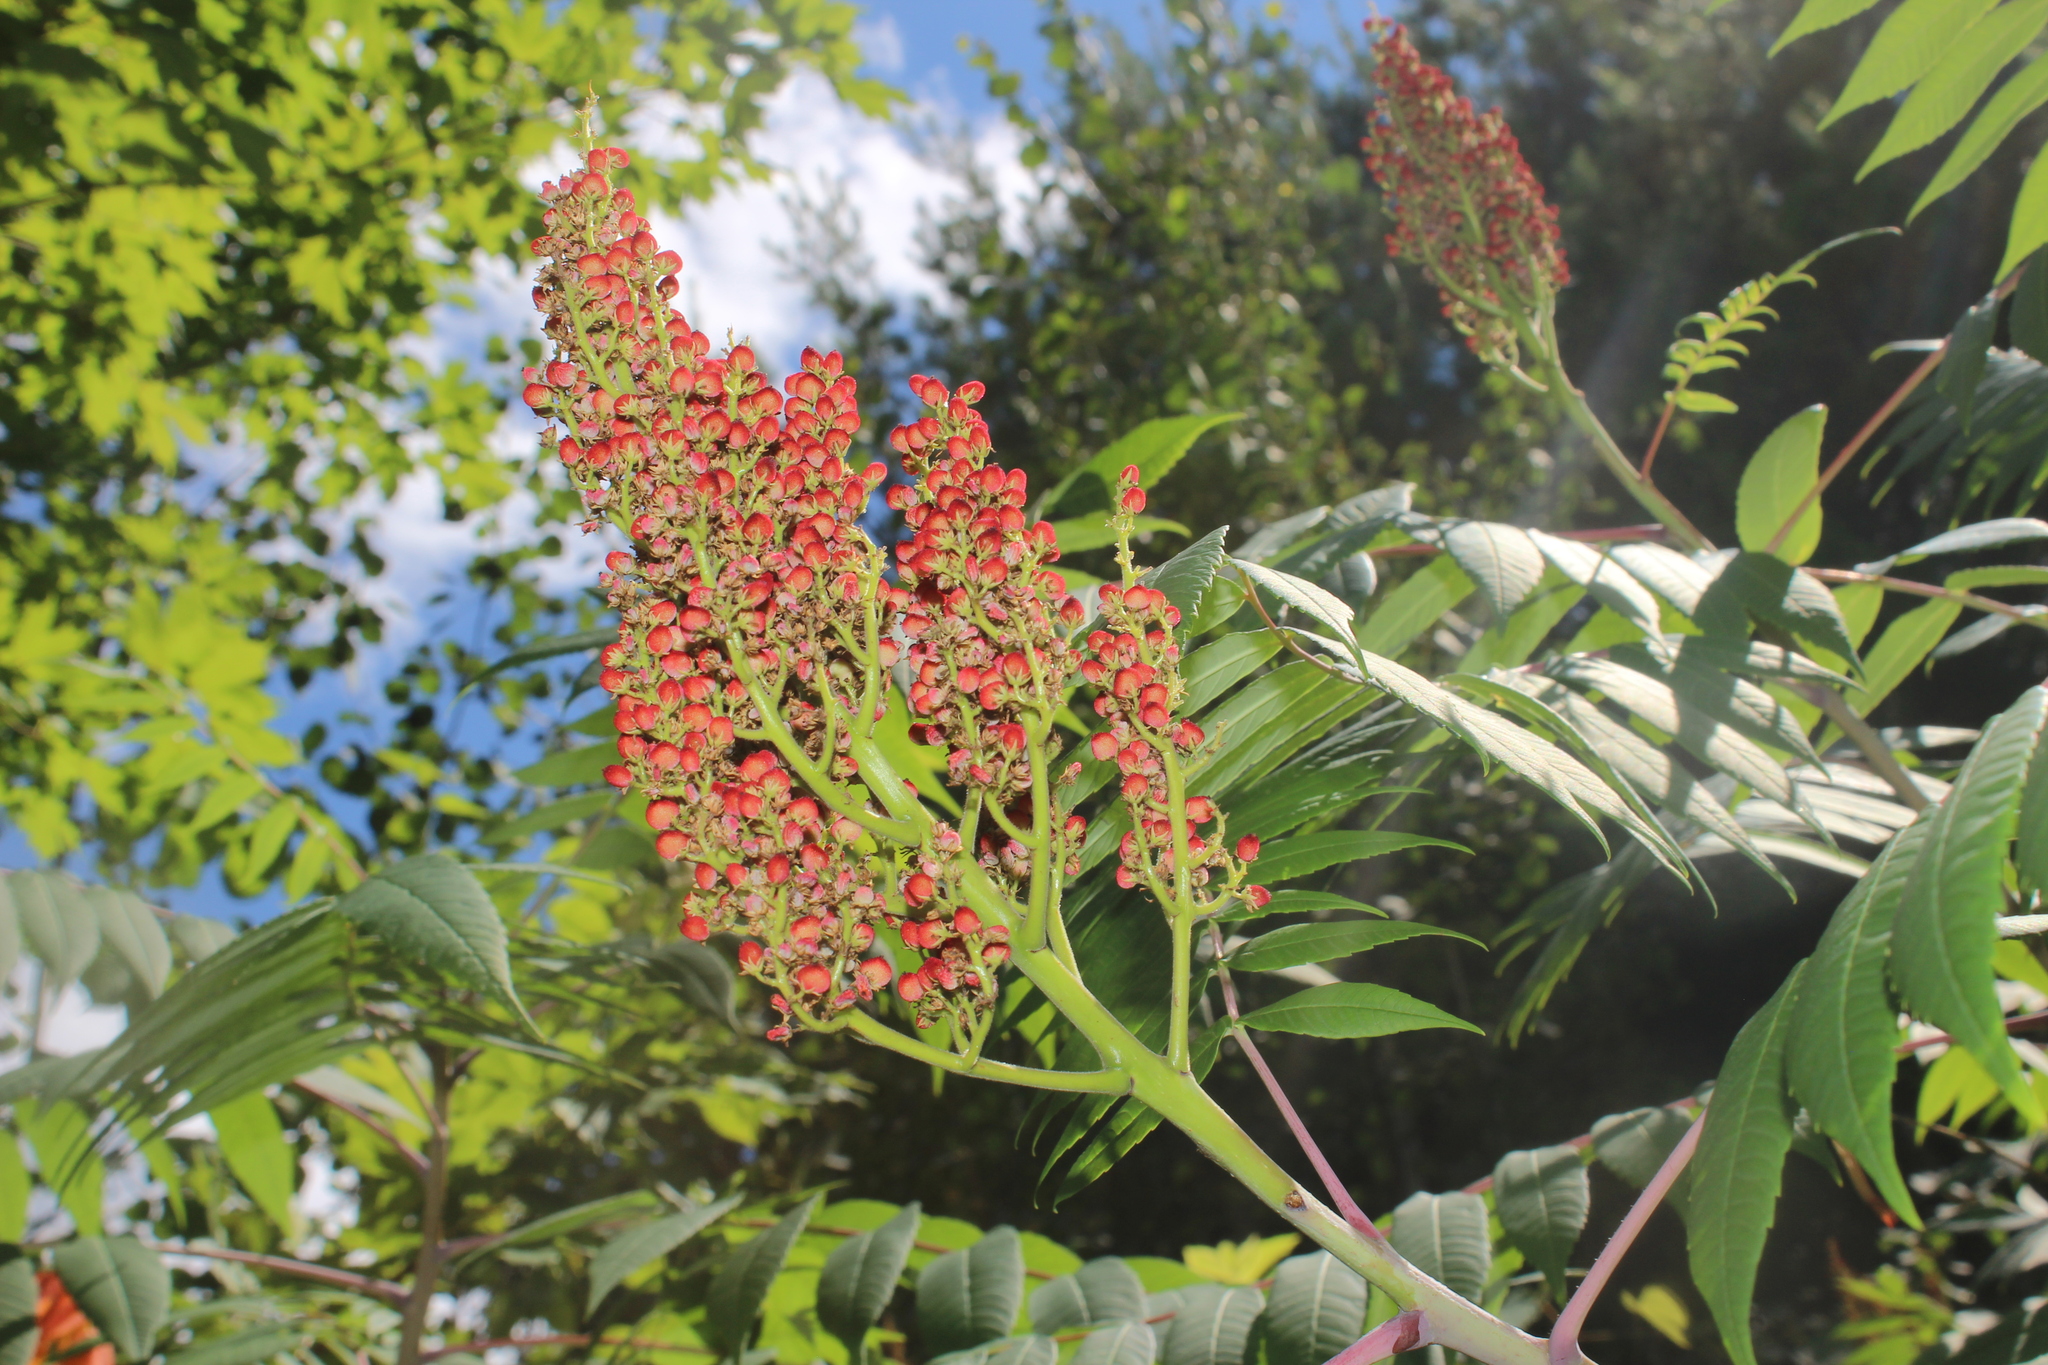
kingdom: Plantae
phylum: Tracheophyta
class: Magnoliopsida
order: Sapindales
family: Anacardiaceae
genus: Rhus
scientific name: Rhus glabra
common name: Scarlet sumac
